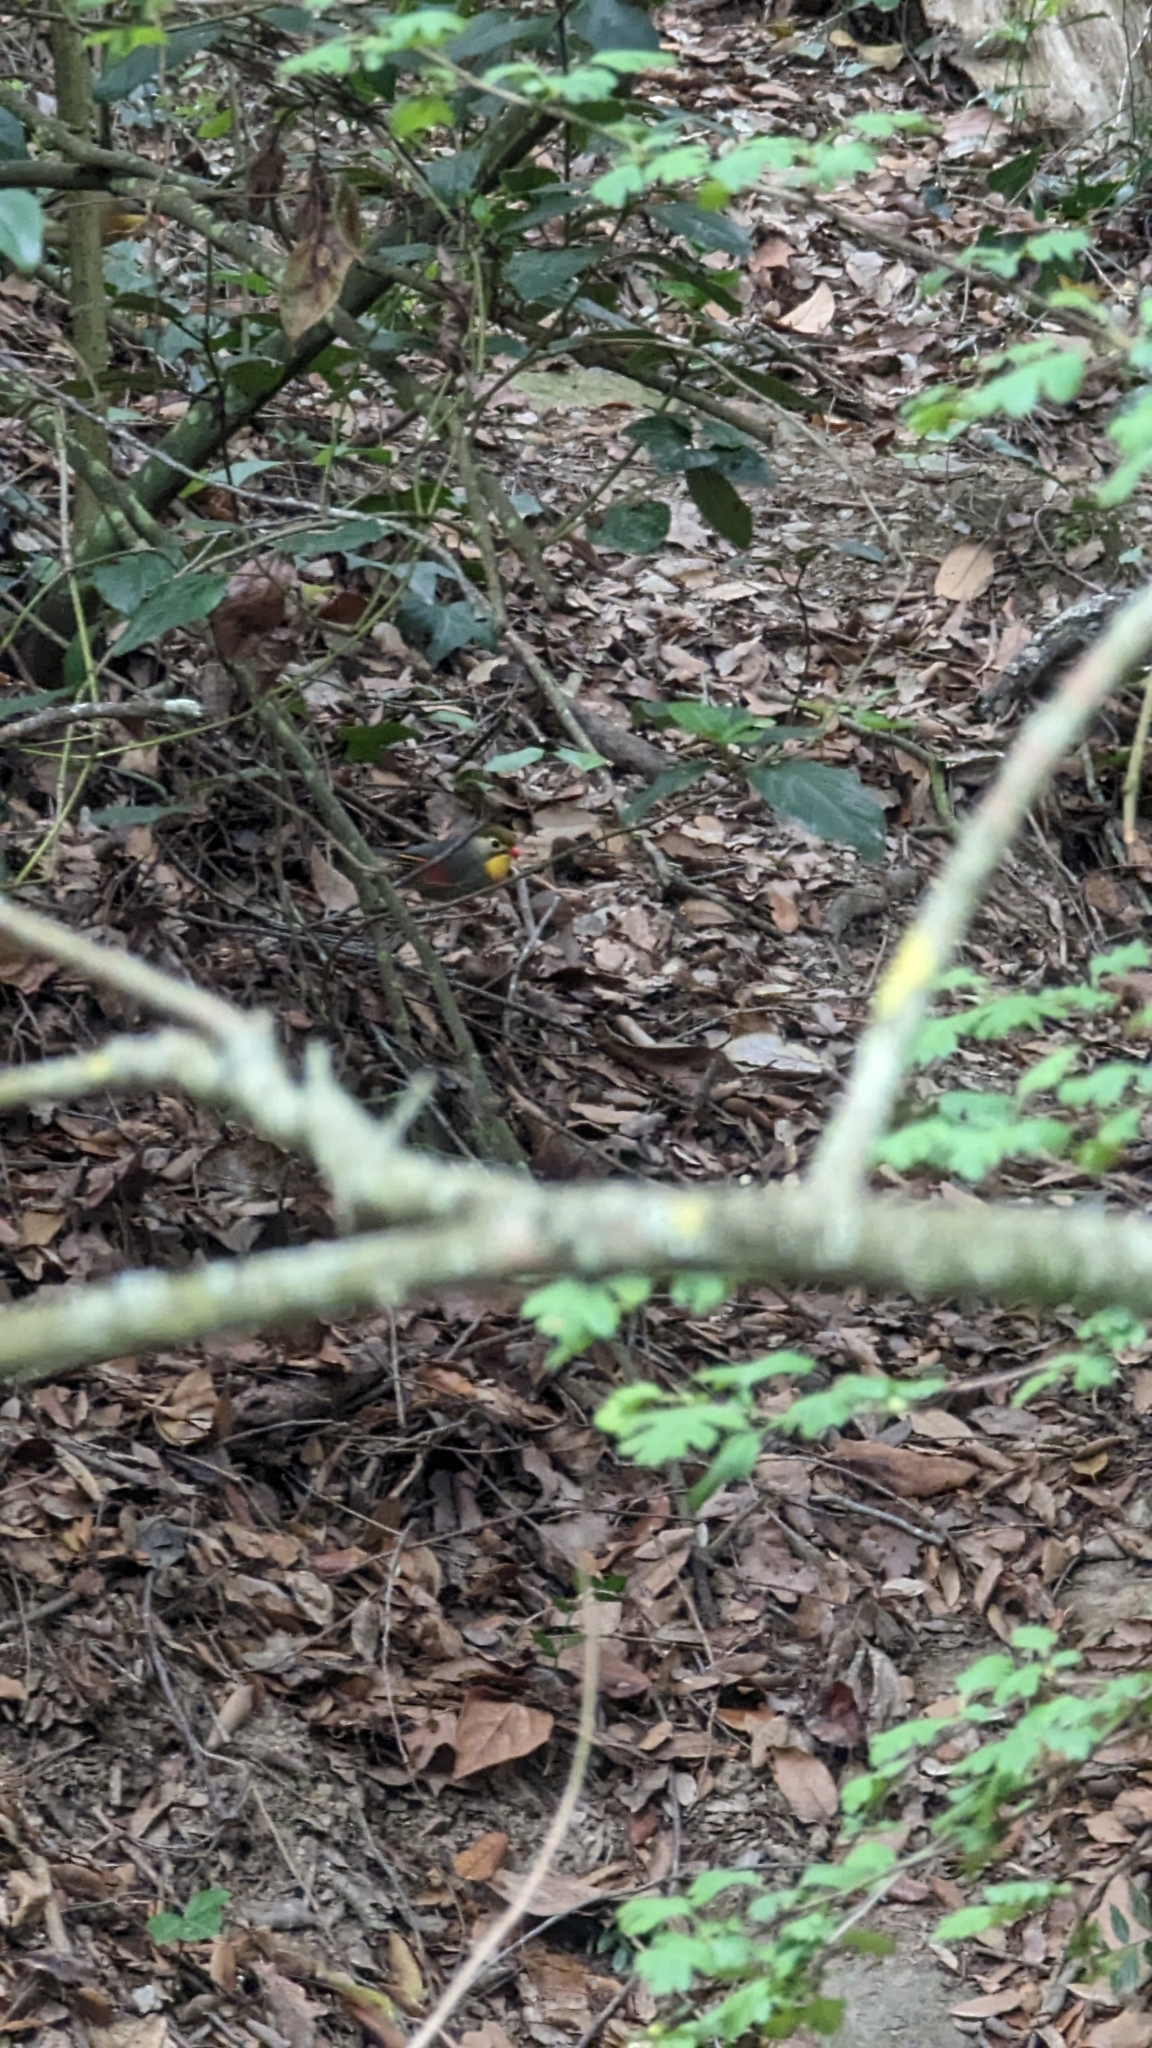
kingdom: Animalia
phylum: Chordata
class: Aves
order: Passeriformes
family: Leiothrichidae
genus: Leiothrix
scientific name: Leiothrix lutea
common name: Red-billed leiothrix
